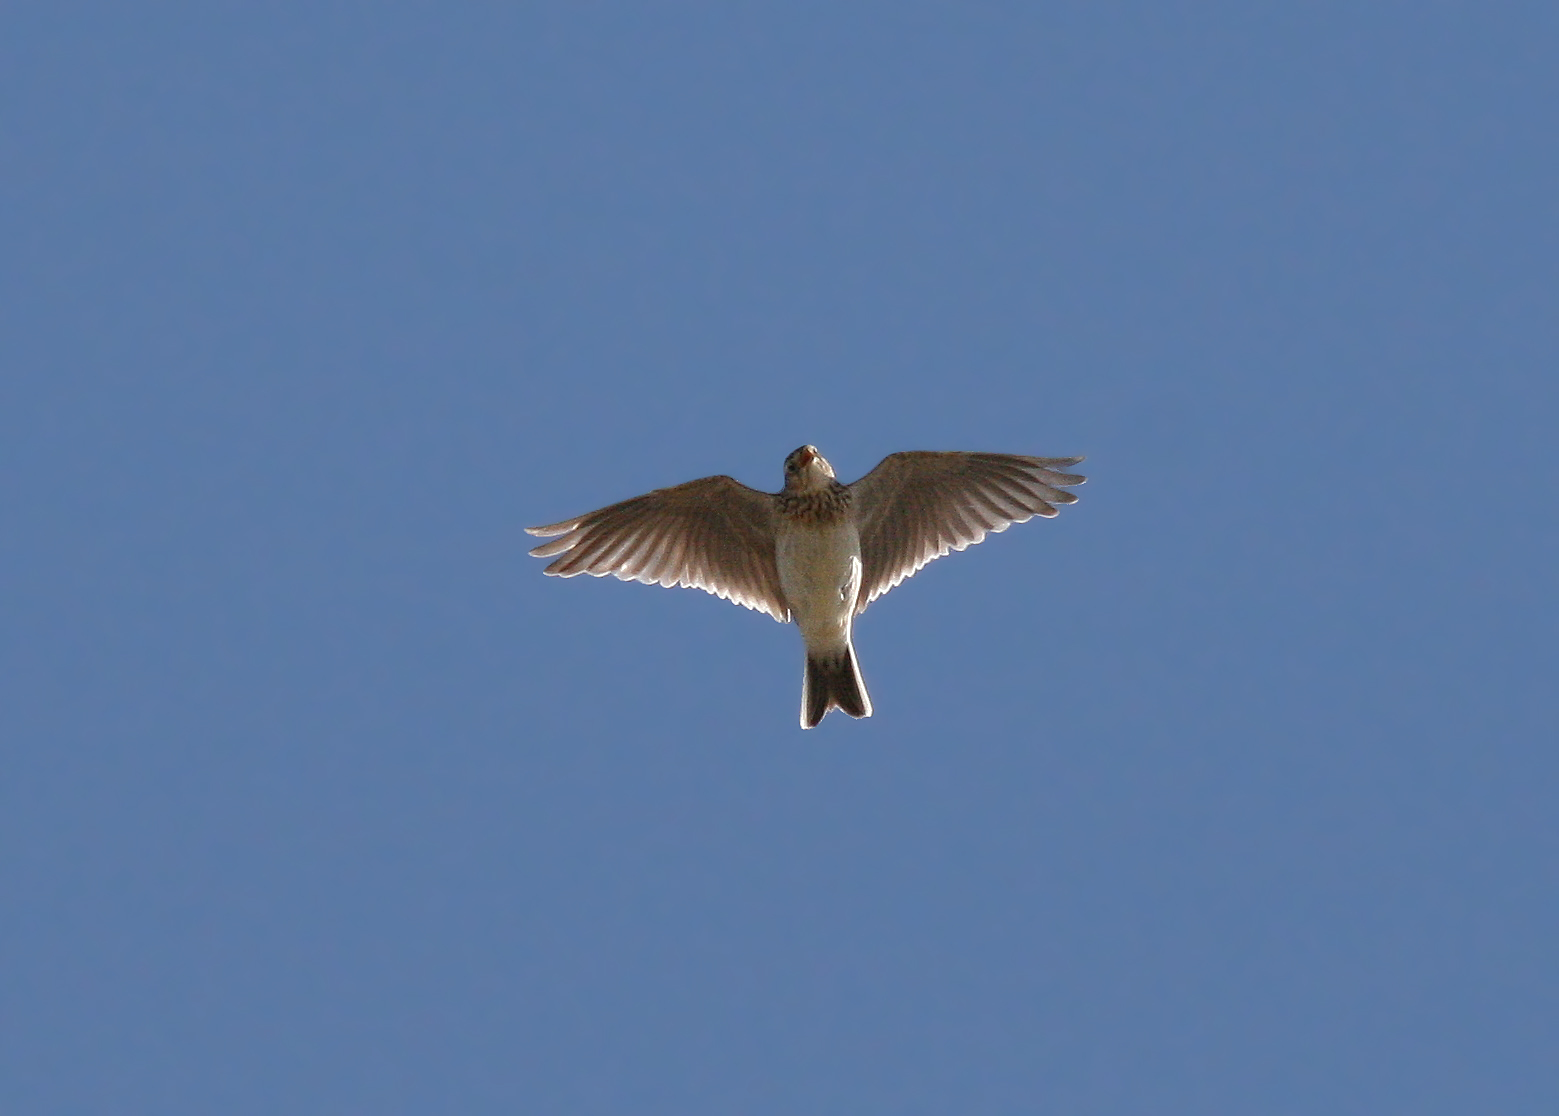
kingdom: Animalia
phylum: Chordata
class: Aves
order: Passeriformes
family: Alaudidae
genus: Alauda
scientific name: Alauda arvensis
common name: Eurasian skylark
